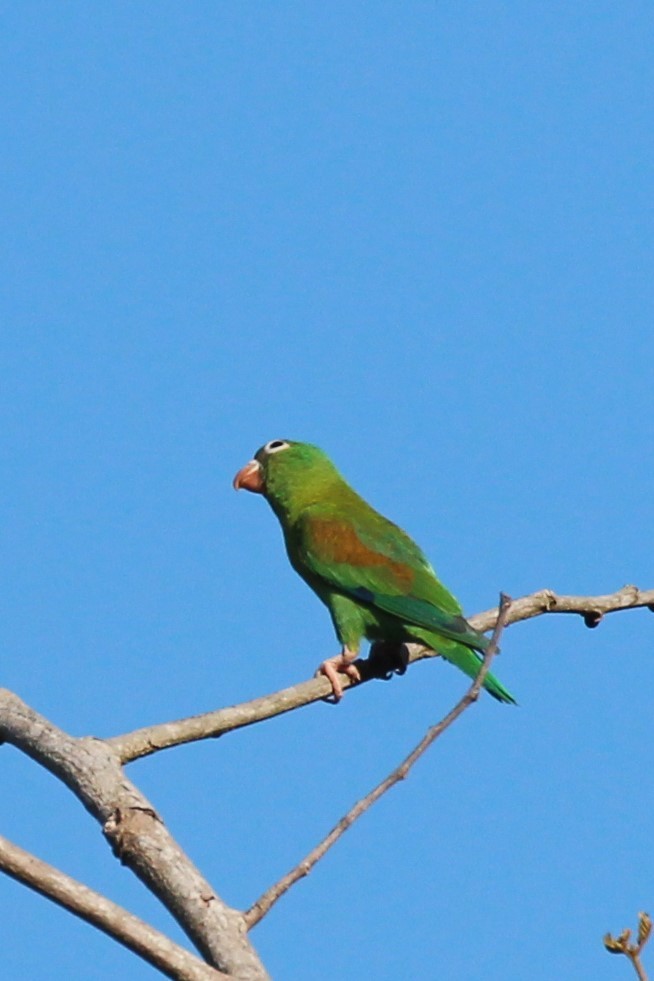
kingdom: Animalia
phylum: Chordata
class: Aves
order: Psittaciformes
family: Psittacidae
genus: Brotogeris
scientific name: Brotogeris jugularis
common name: Orange-chinned parakeet
